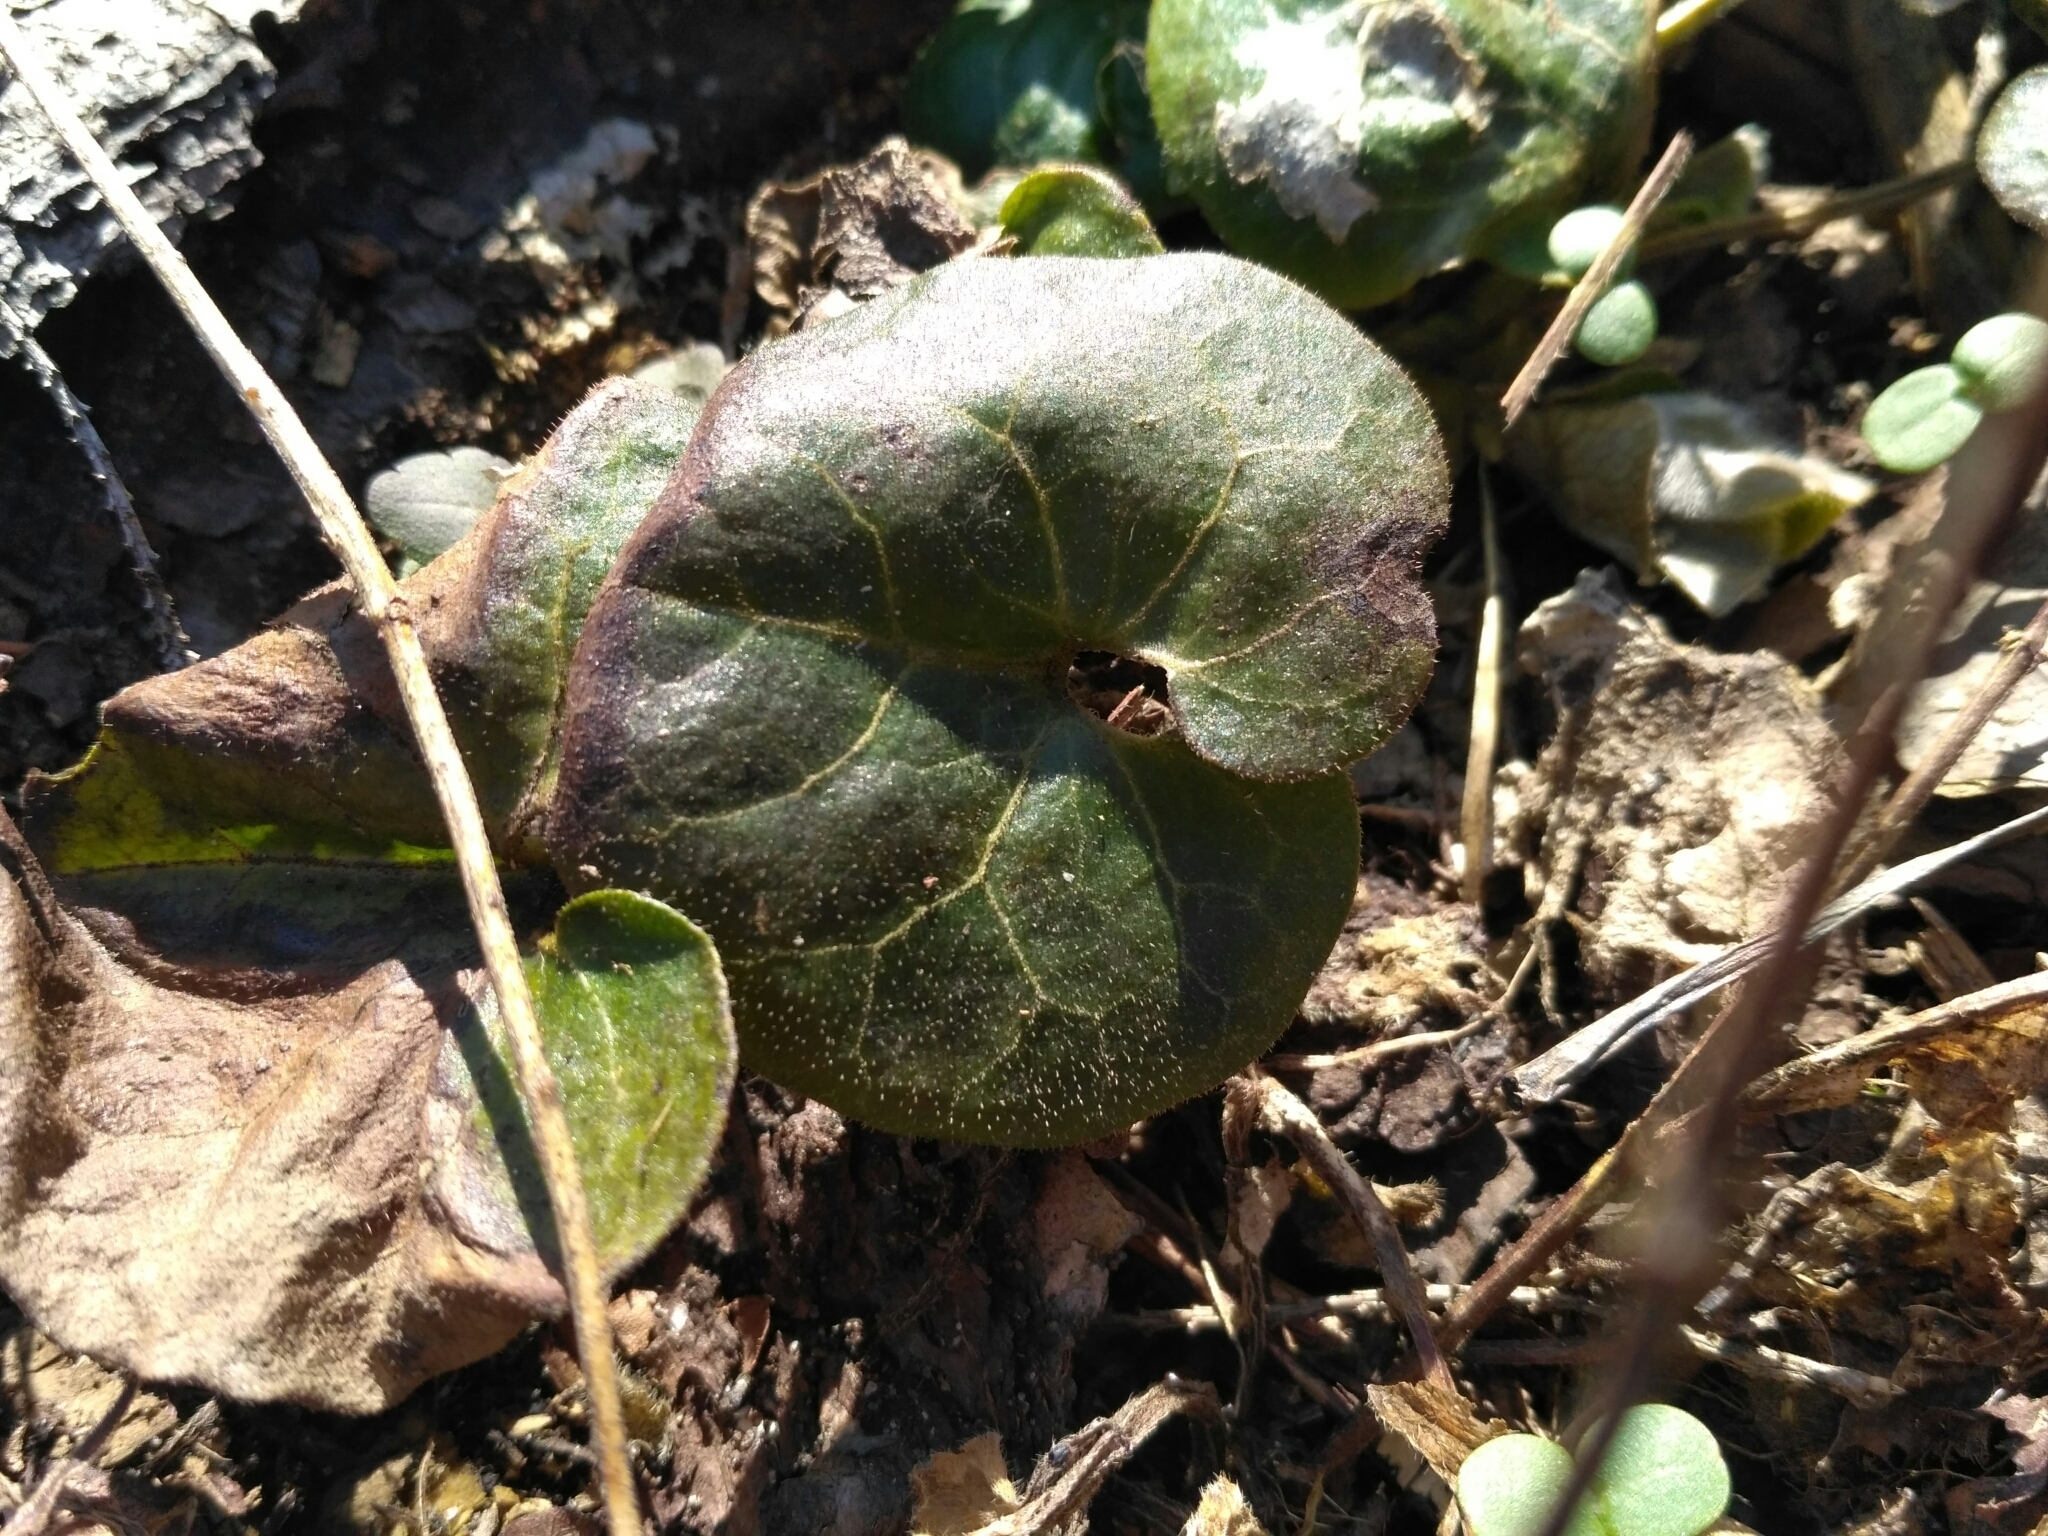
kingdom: Plantae
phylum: Tracheophyta
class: Magnoliopsida
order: Piperales
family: Aristolochiaceae
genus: Asarum
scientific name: Asarum europaeum
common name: Asarabacca
